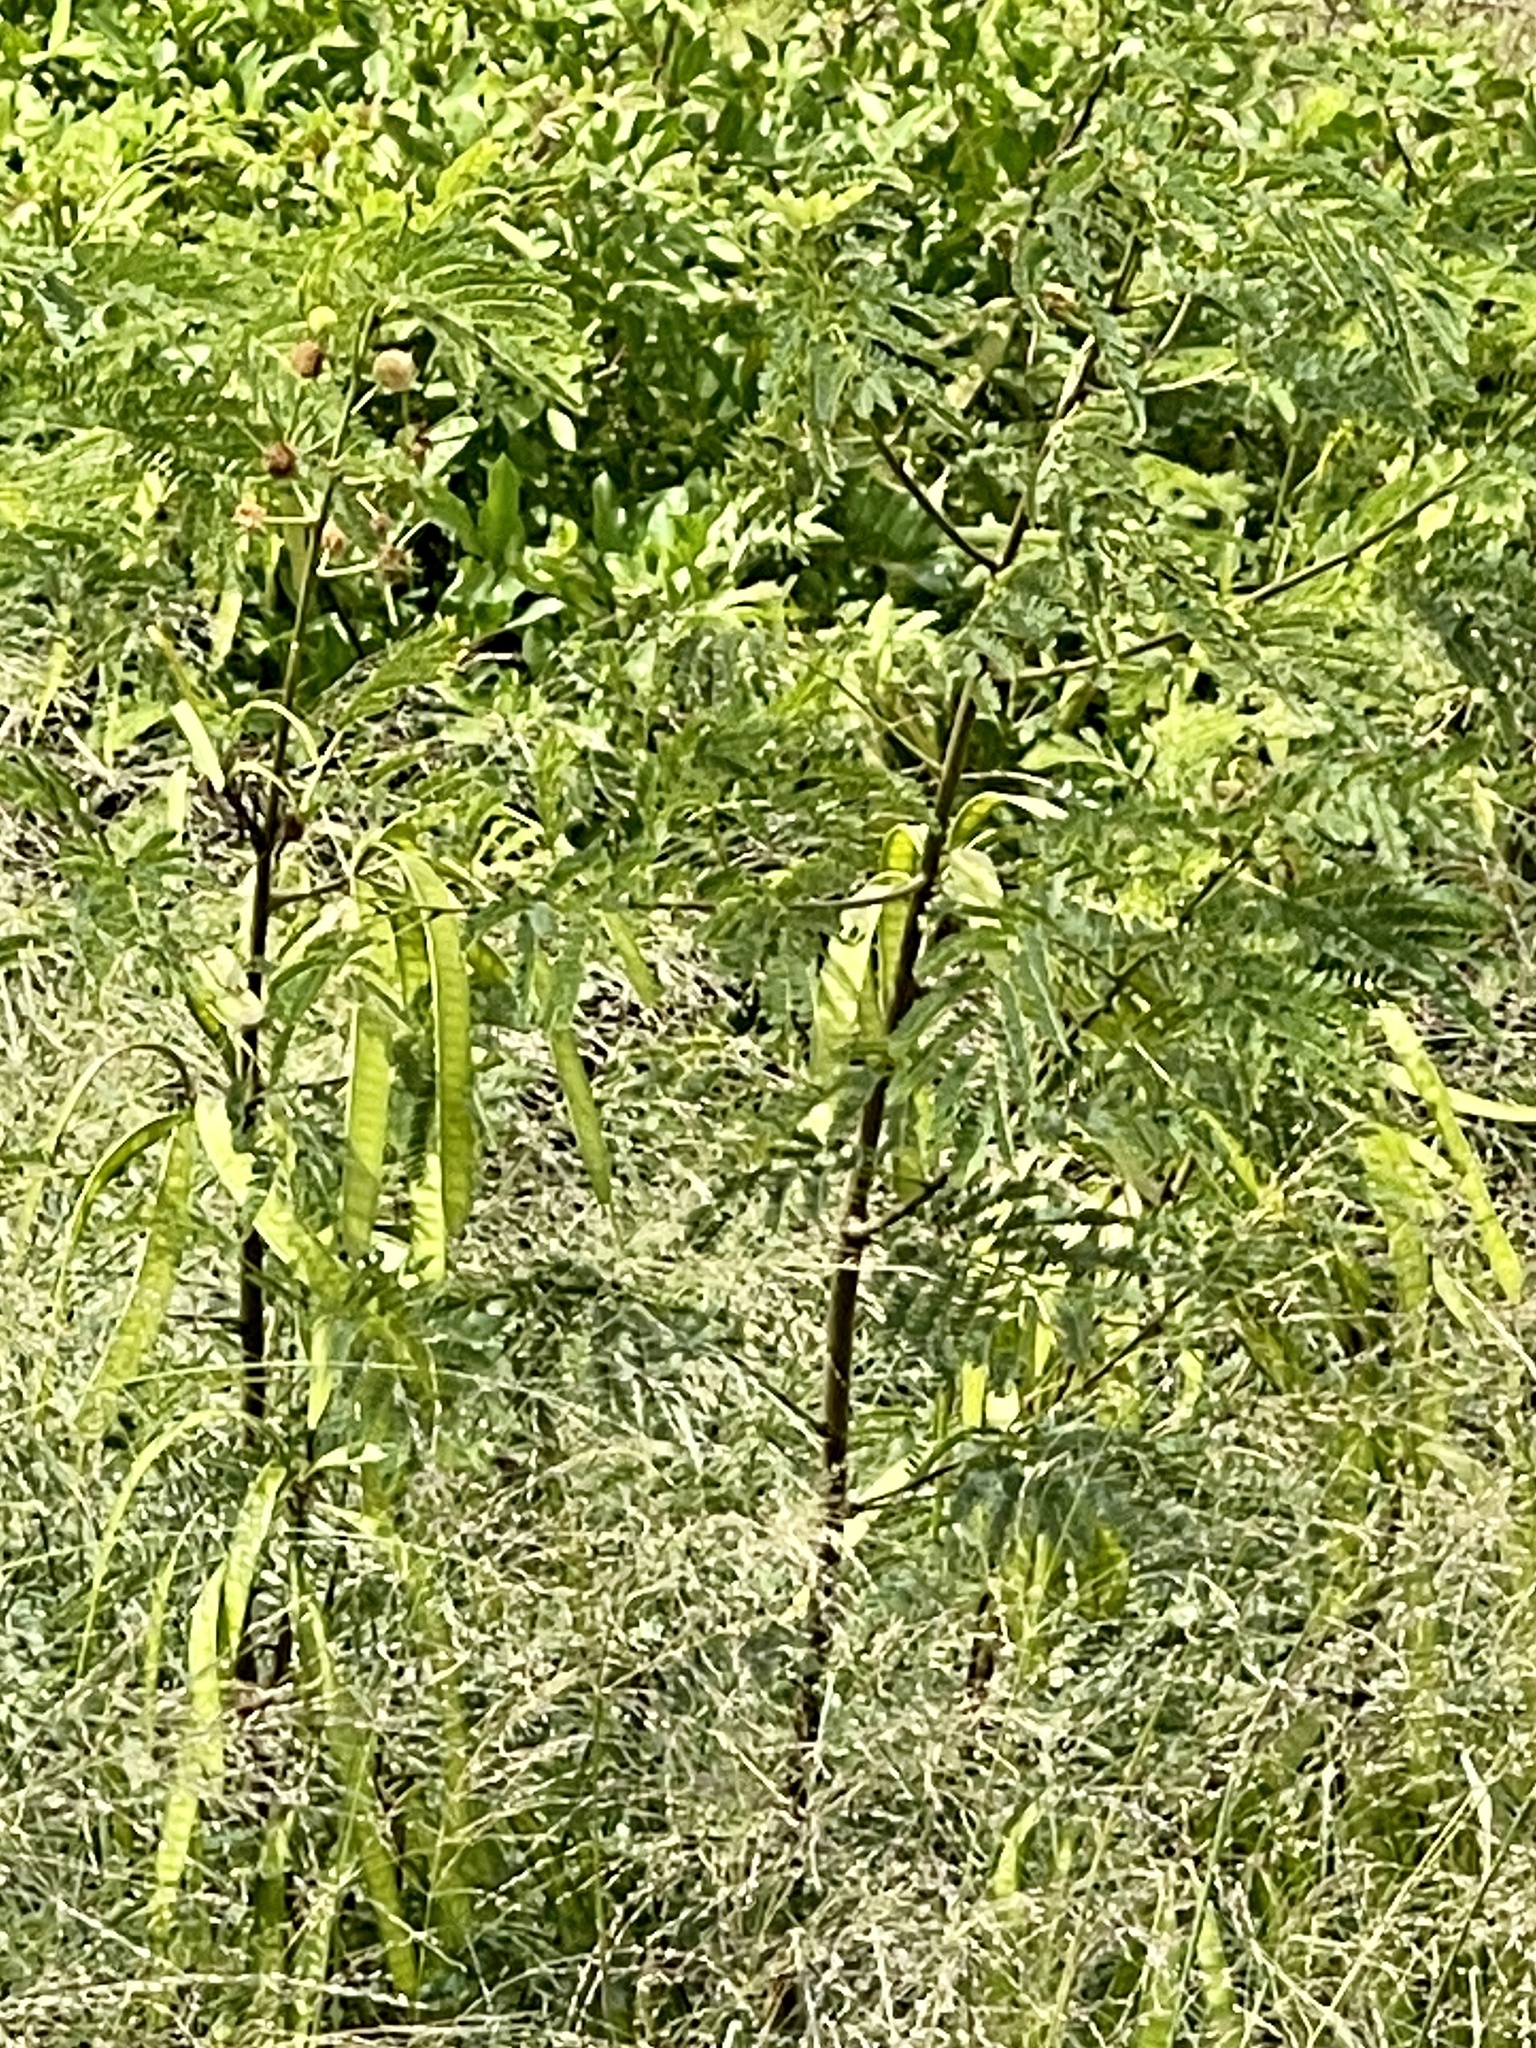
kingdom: Plantae
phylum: Tracheophyta
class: Magnoliopsida
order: Fabales
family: Fabaceae
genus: Leucaena
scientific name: Leucaena leucocephala
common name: White leadtree
